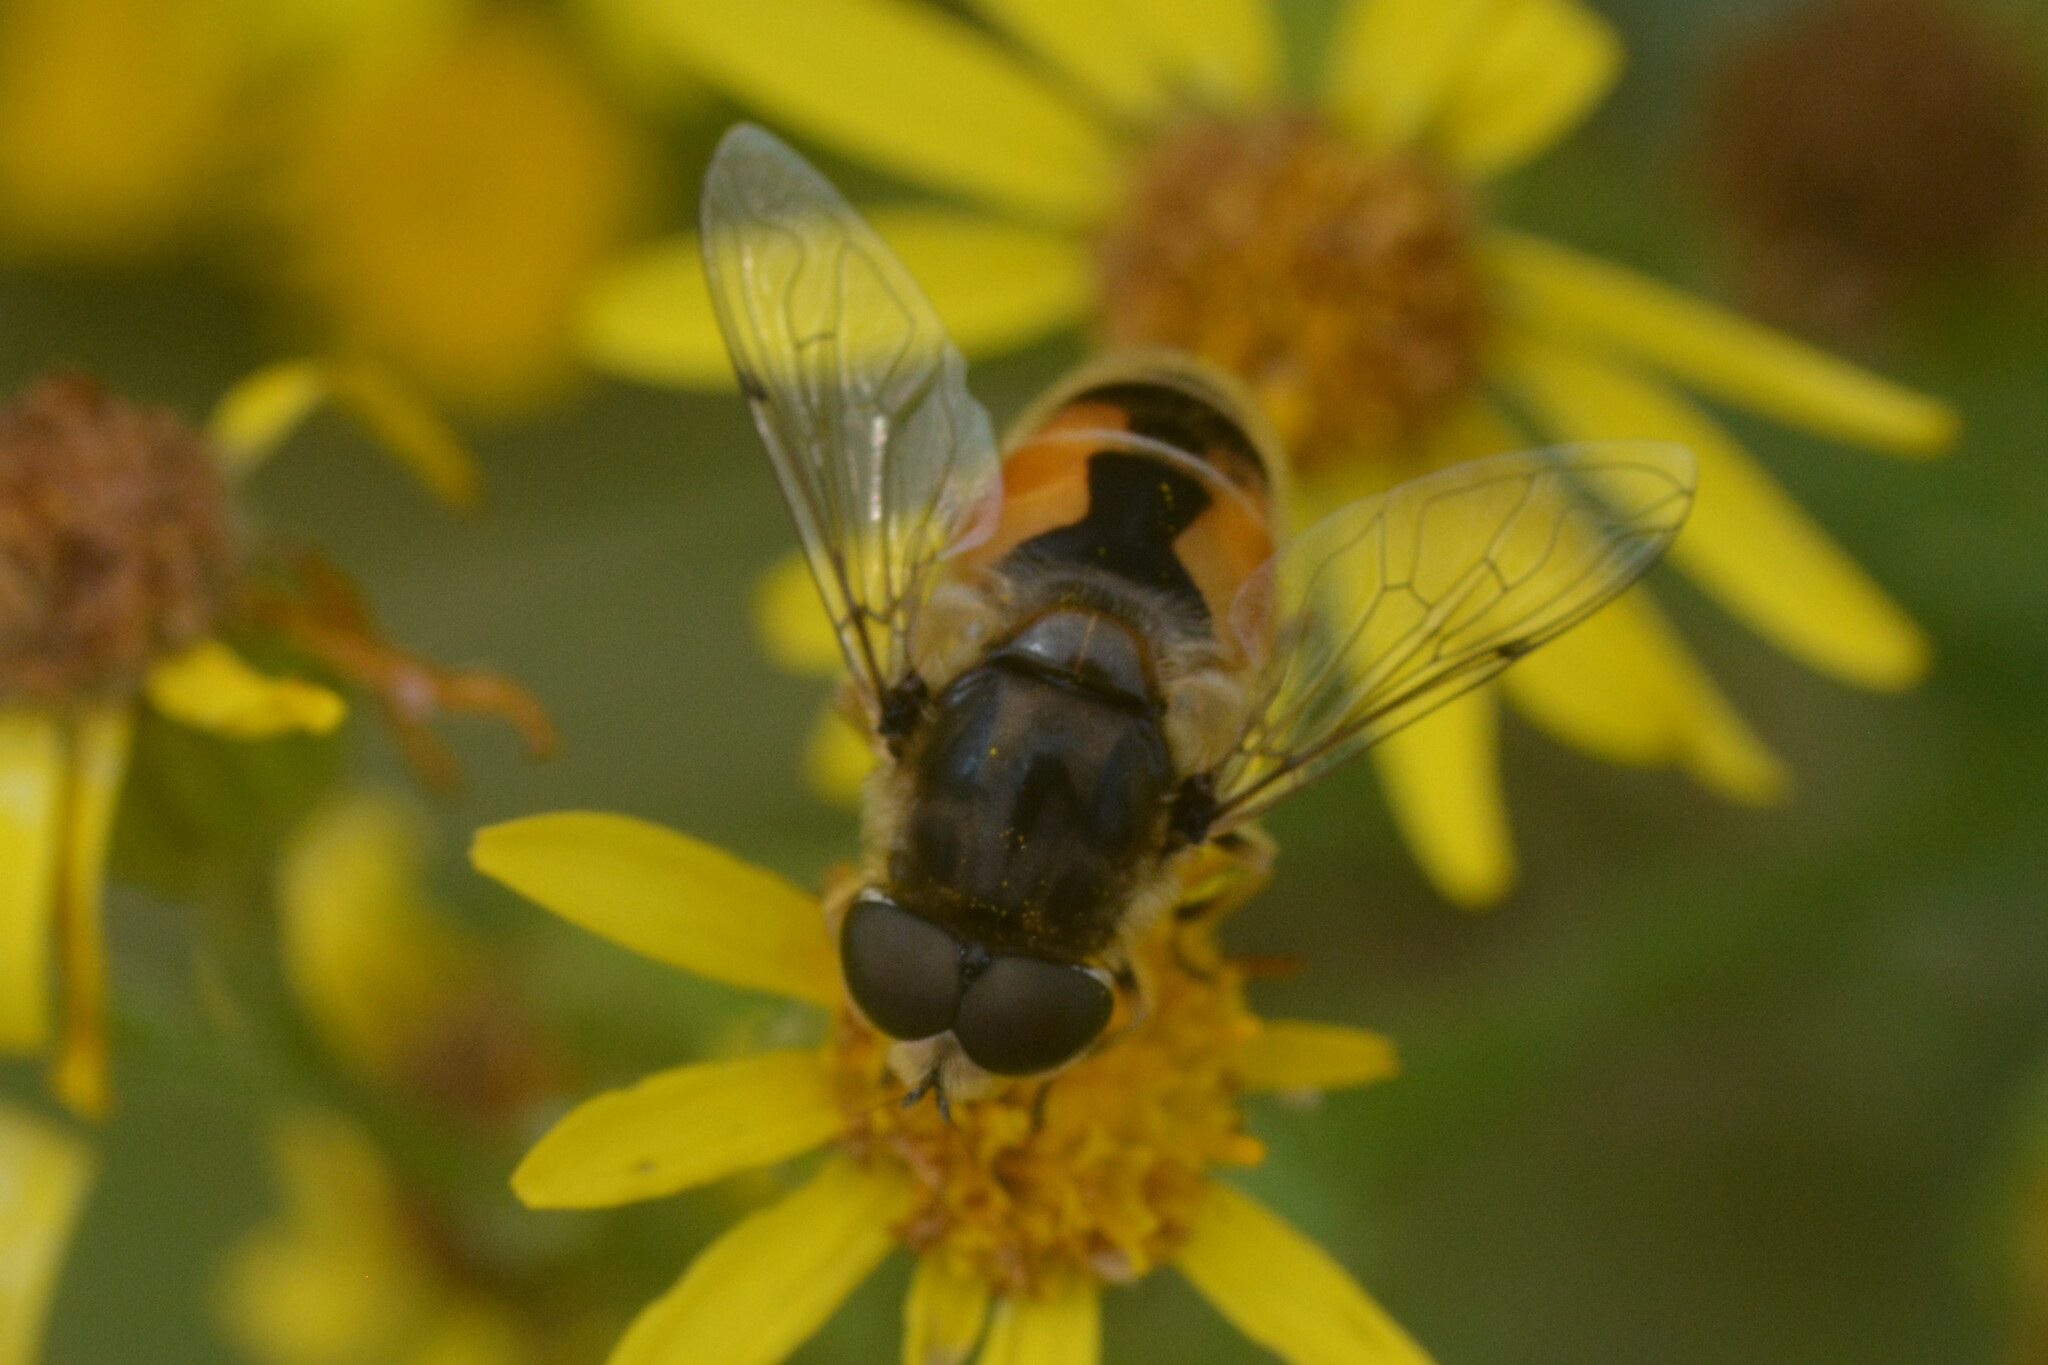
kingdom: Animalia
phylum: Arthropoda
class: Insecta
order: Diptera
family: Syrphidae
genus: Eristalis
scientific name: Eristalis arbustorum
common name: Hover fly
